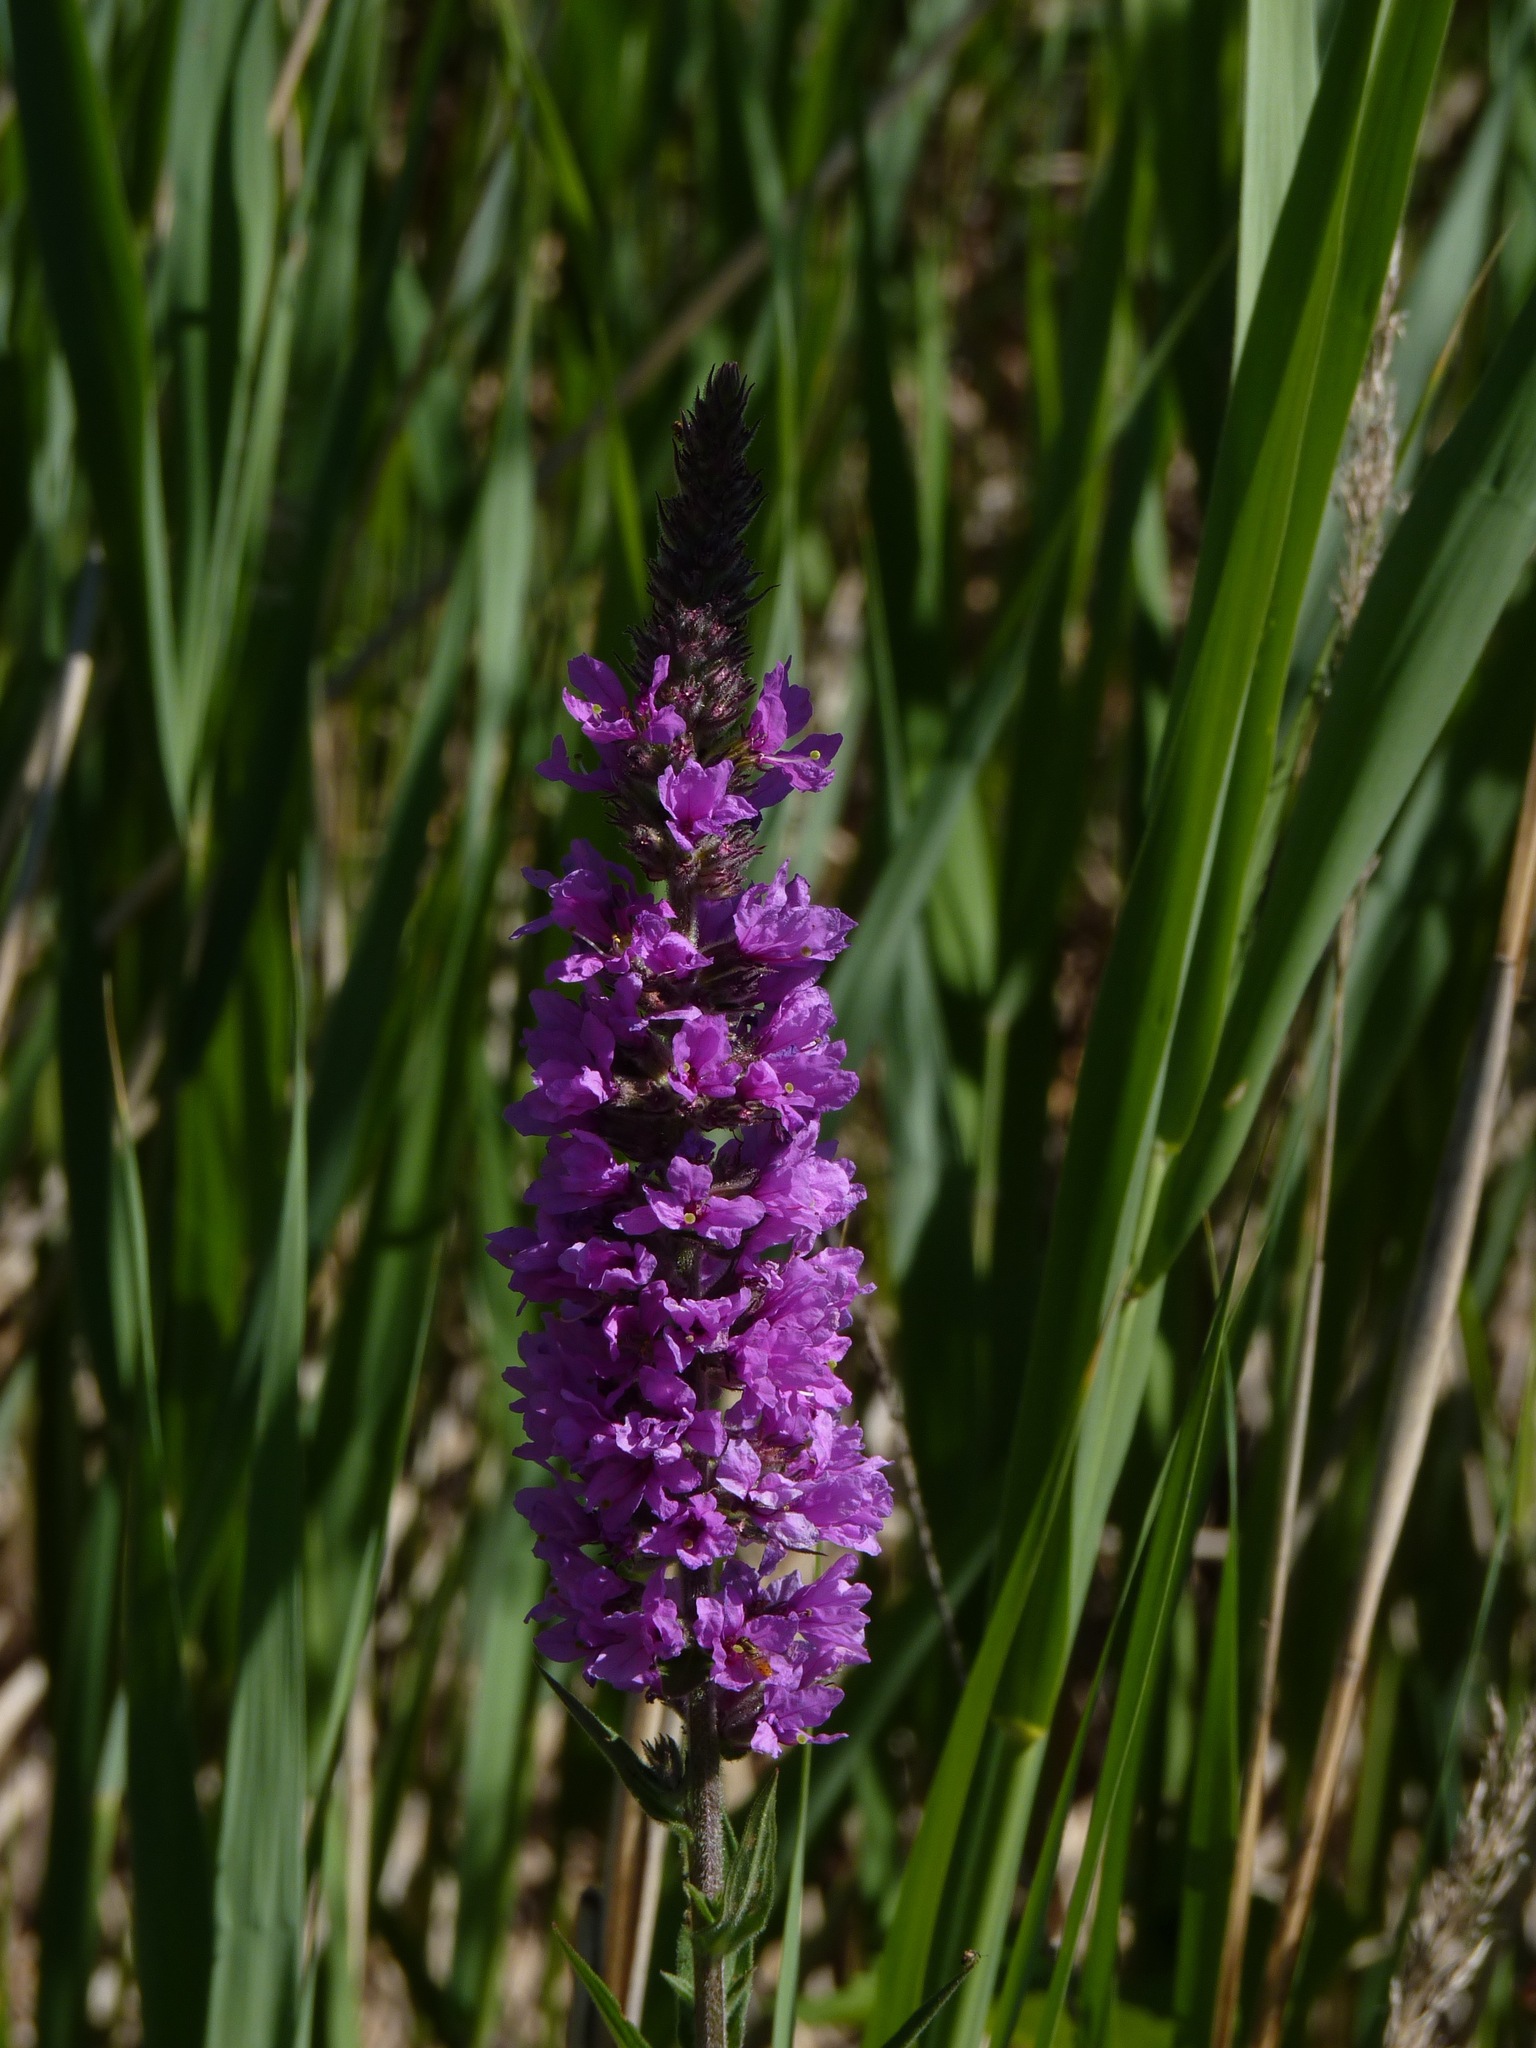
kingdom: Plantae
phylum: Tracheophyta
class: Magnoliopsida
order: Myrtales
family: Lythraceae
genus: Lythrum
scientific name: Lythrum salicaria
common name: Purple loosestrife
